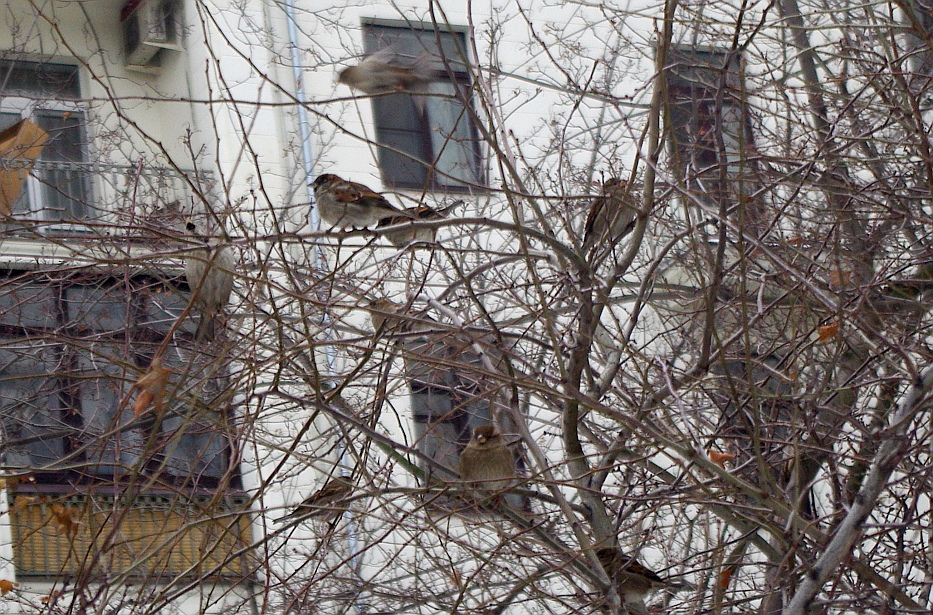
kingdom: Animalia
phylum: Chordata
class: Aves
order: Passeriformes
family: Passeridae
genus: Passer
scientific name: Passer domesticus
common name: House sparrow
